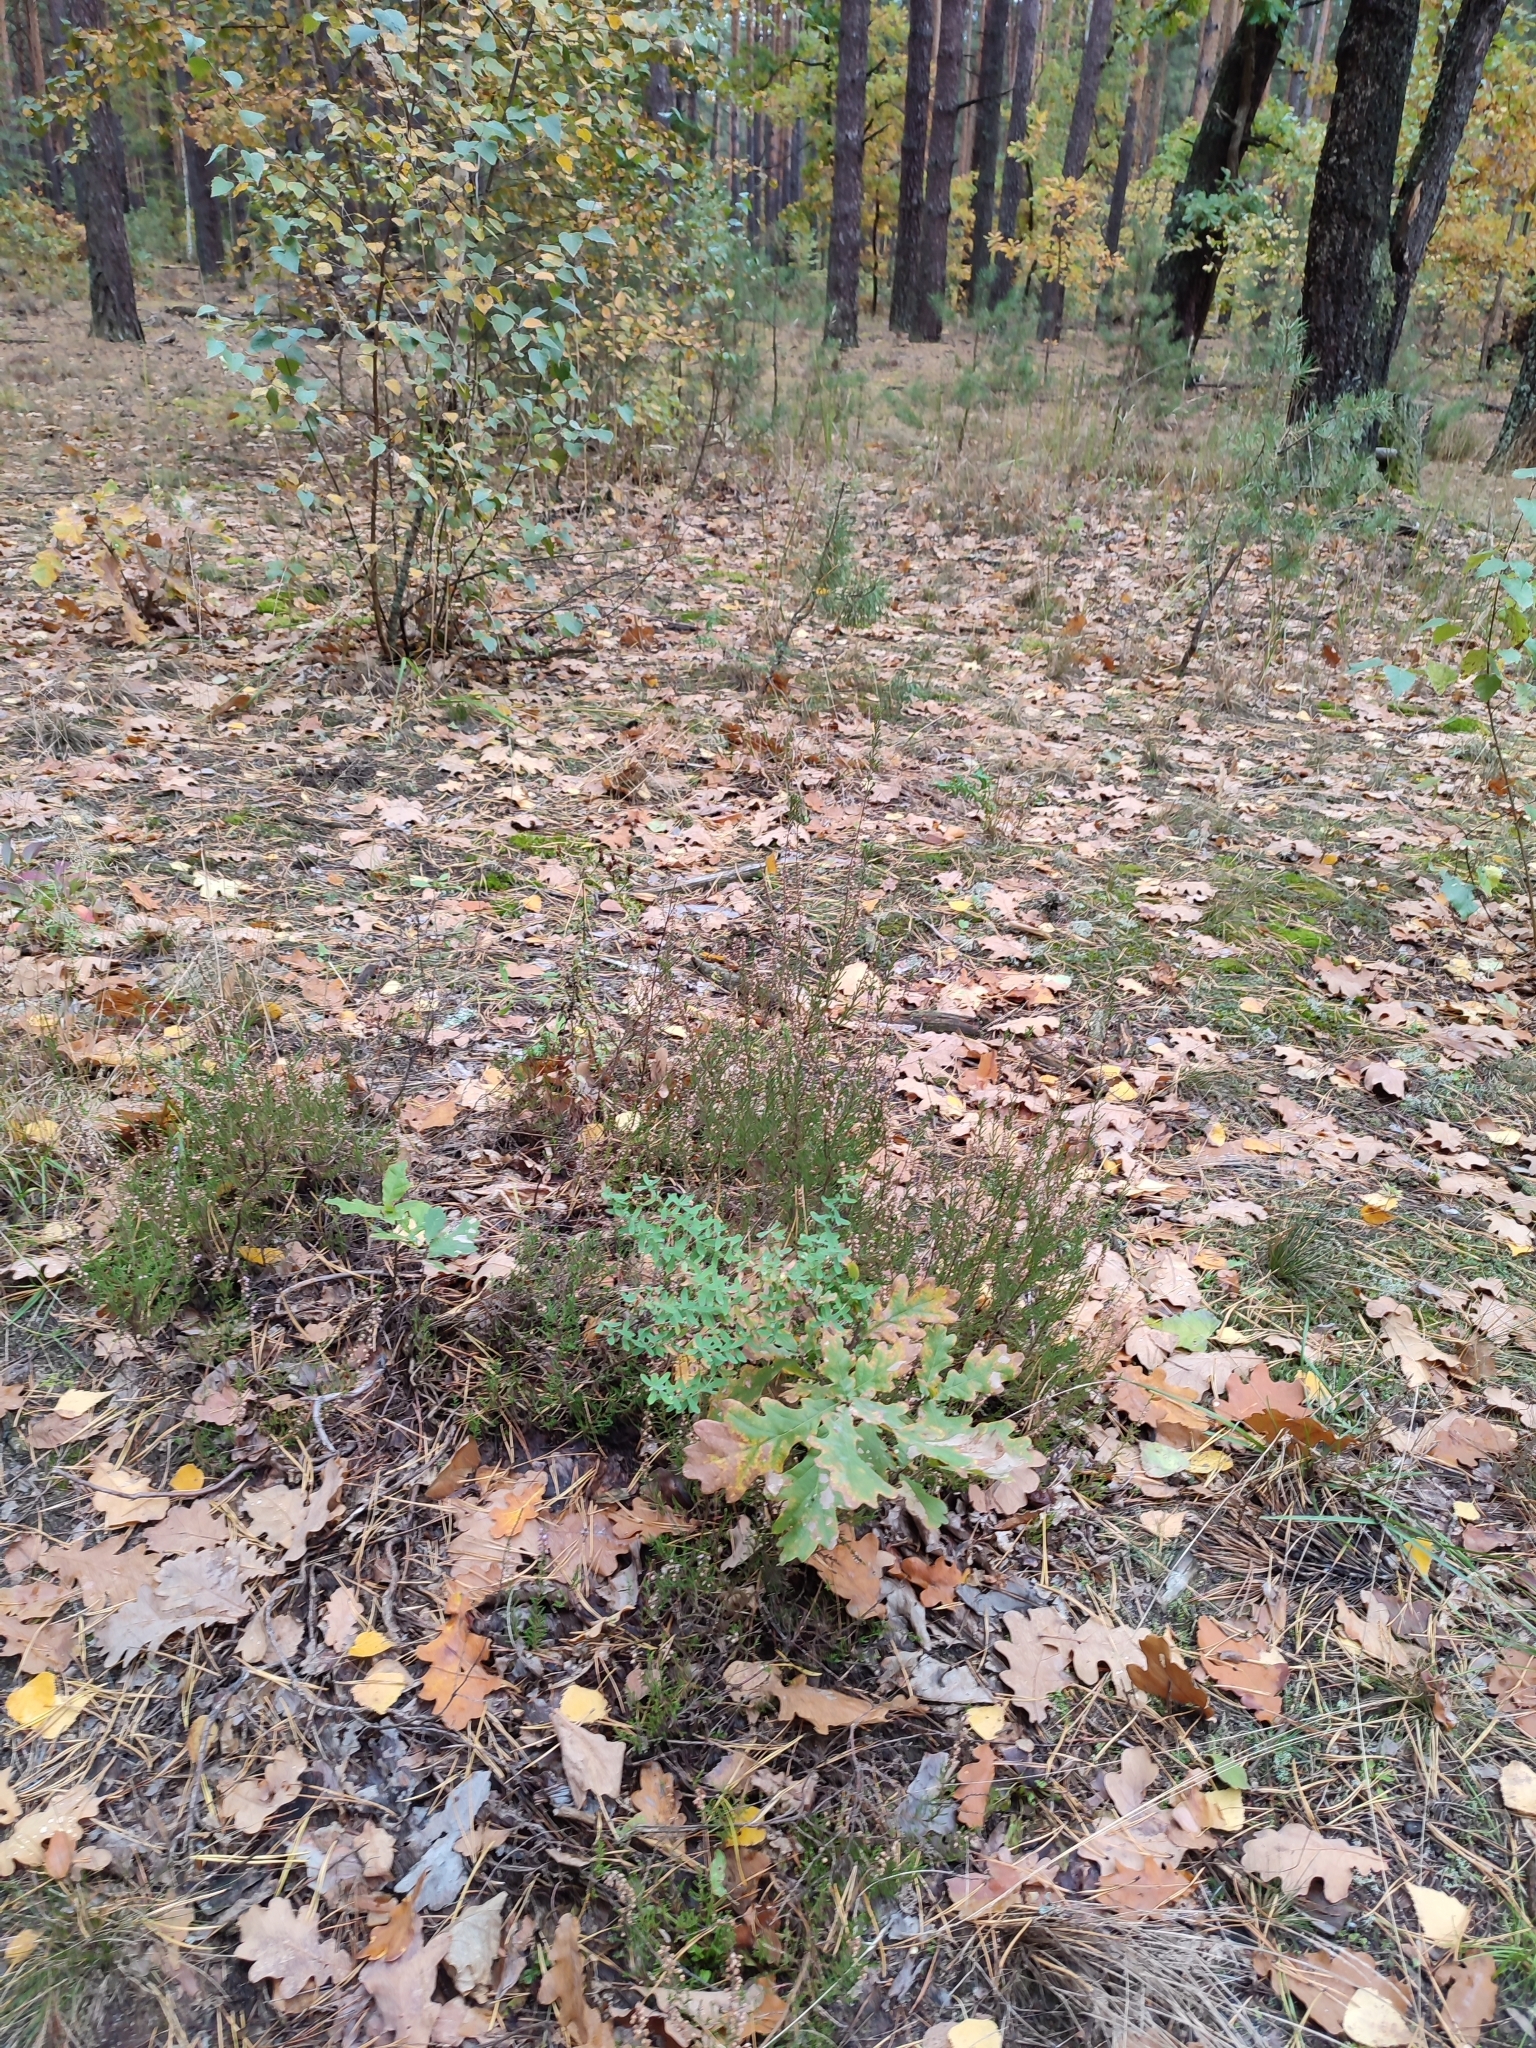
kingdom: Plantae
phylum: Tracheophyta
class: Magnoliopsida
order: Fagales
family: Fagaceae
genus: Quercus
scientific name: Quercus robur
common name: Pedunculate oak
